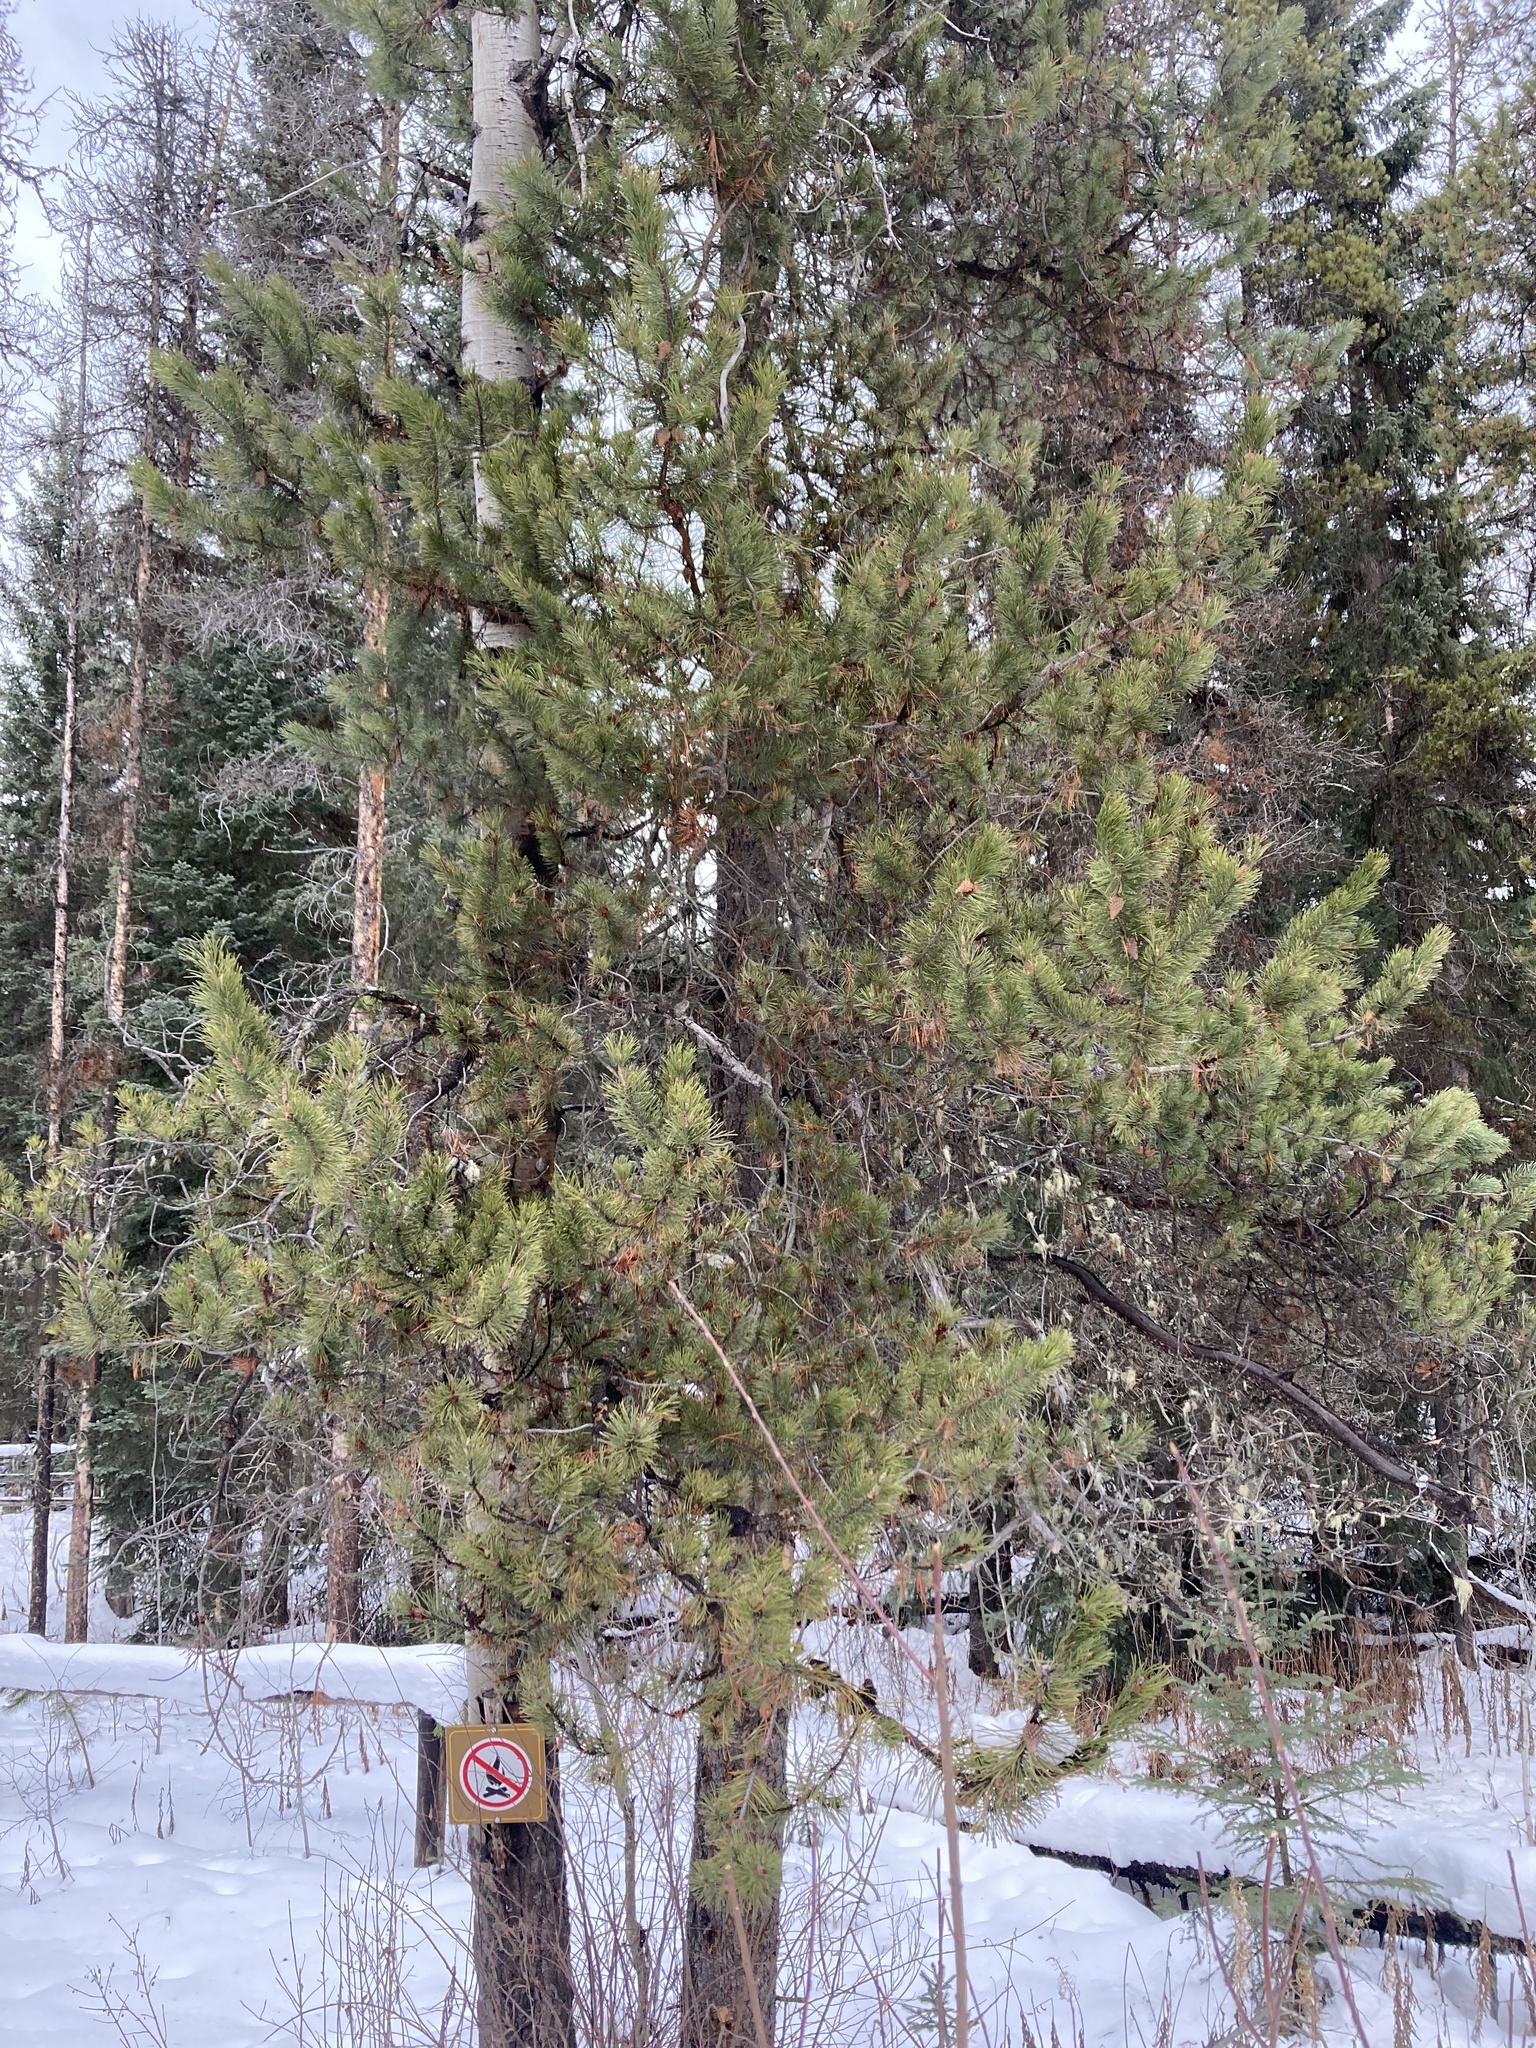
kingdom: Plantae
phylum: Tracheophyta
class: Pinopsida
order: Pinales
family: Pinaceae
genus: Pinus
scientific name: Pinus contorta
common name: Lodgepole pine
